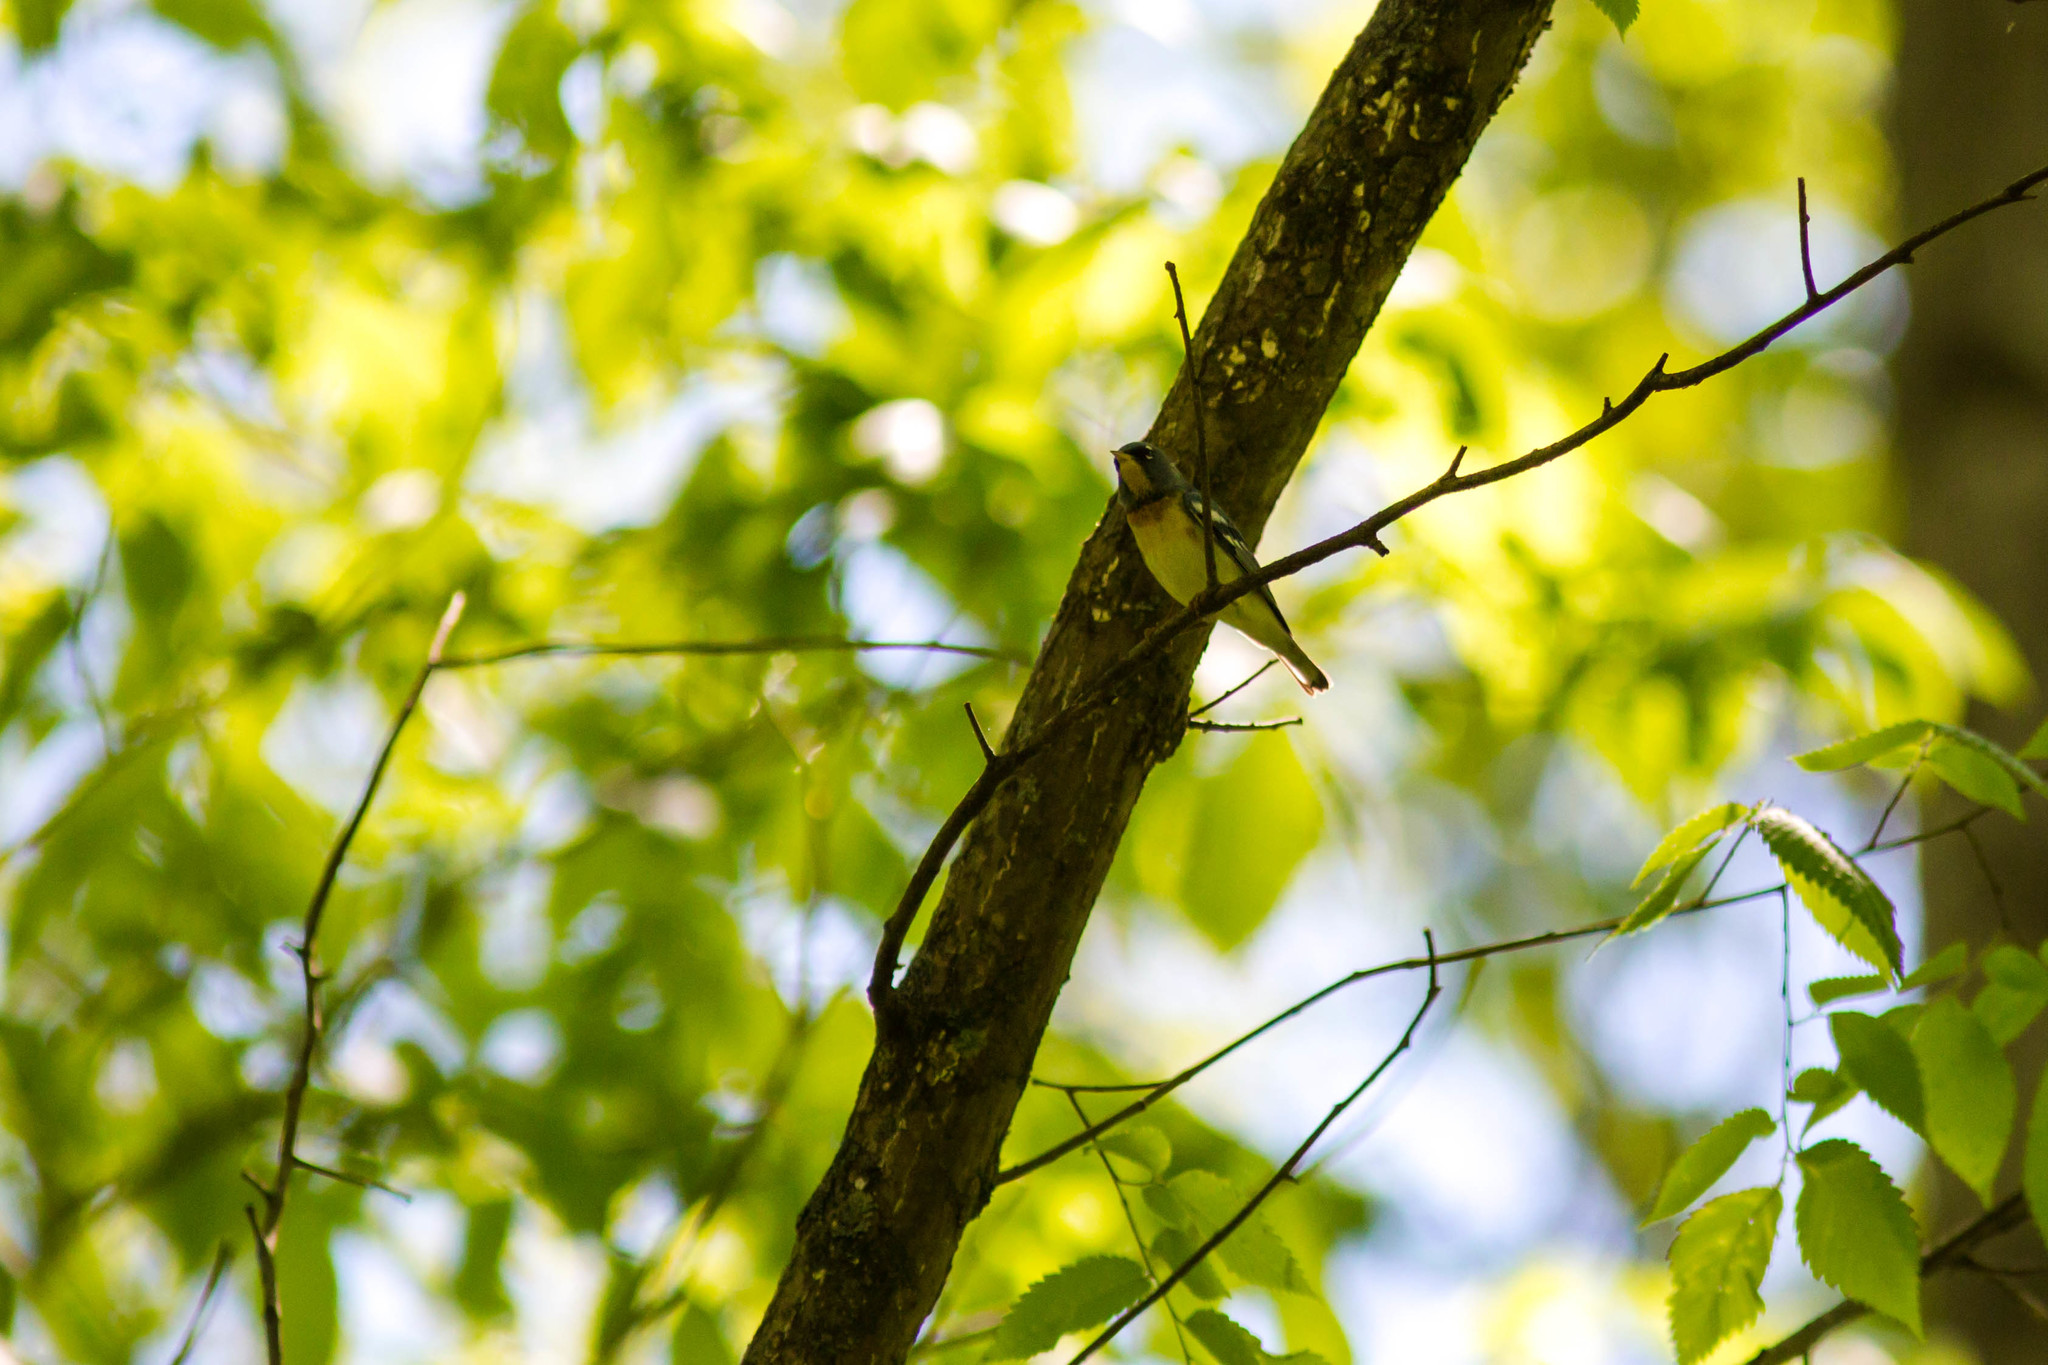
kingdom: Animalia
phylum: Chordata
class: Aves
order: Passeriformes
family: Parulidae
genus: Setophaga
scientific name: Setophaga americana
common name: Northern parula
